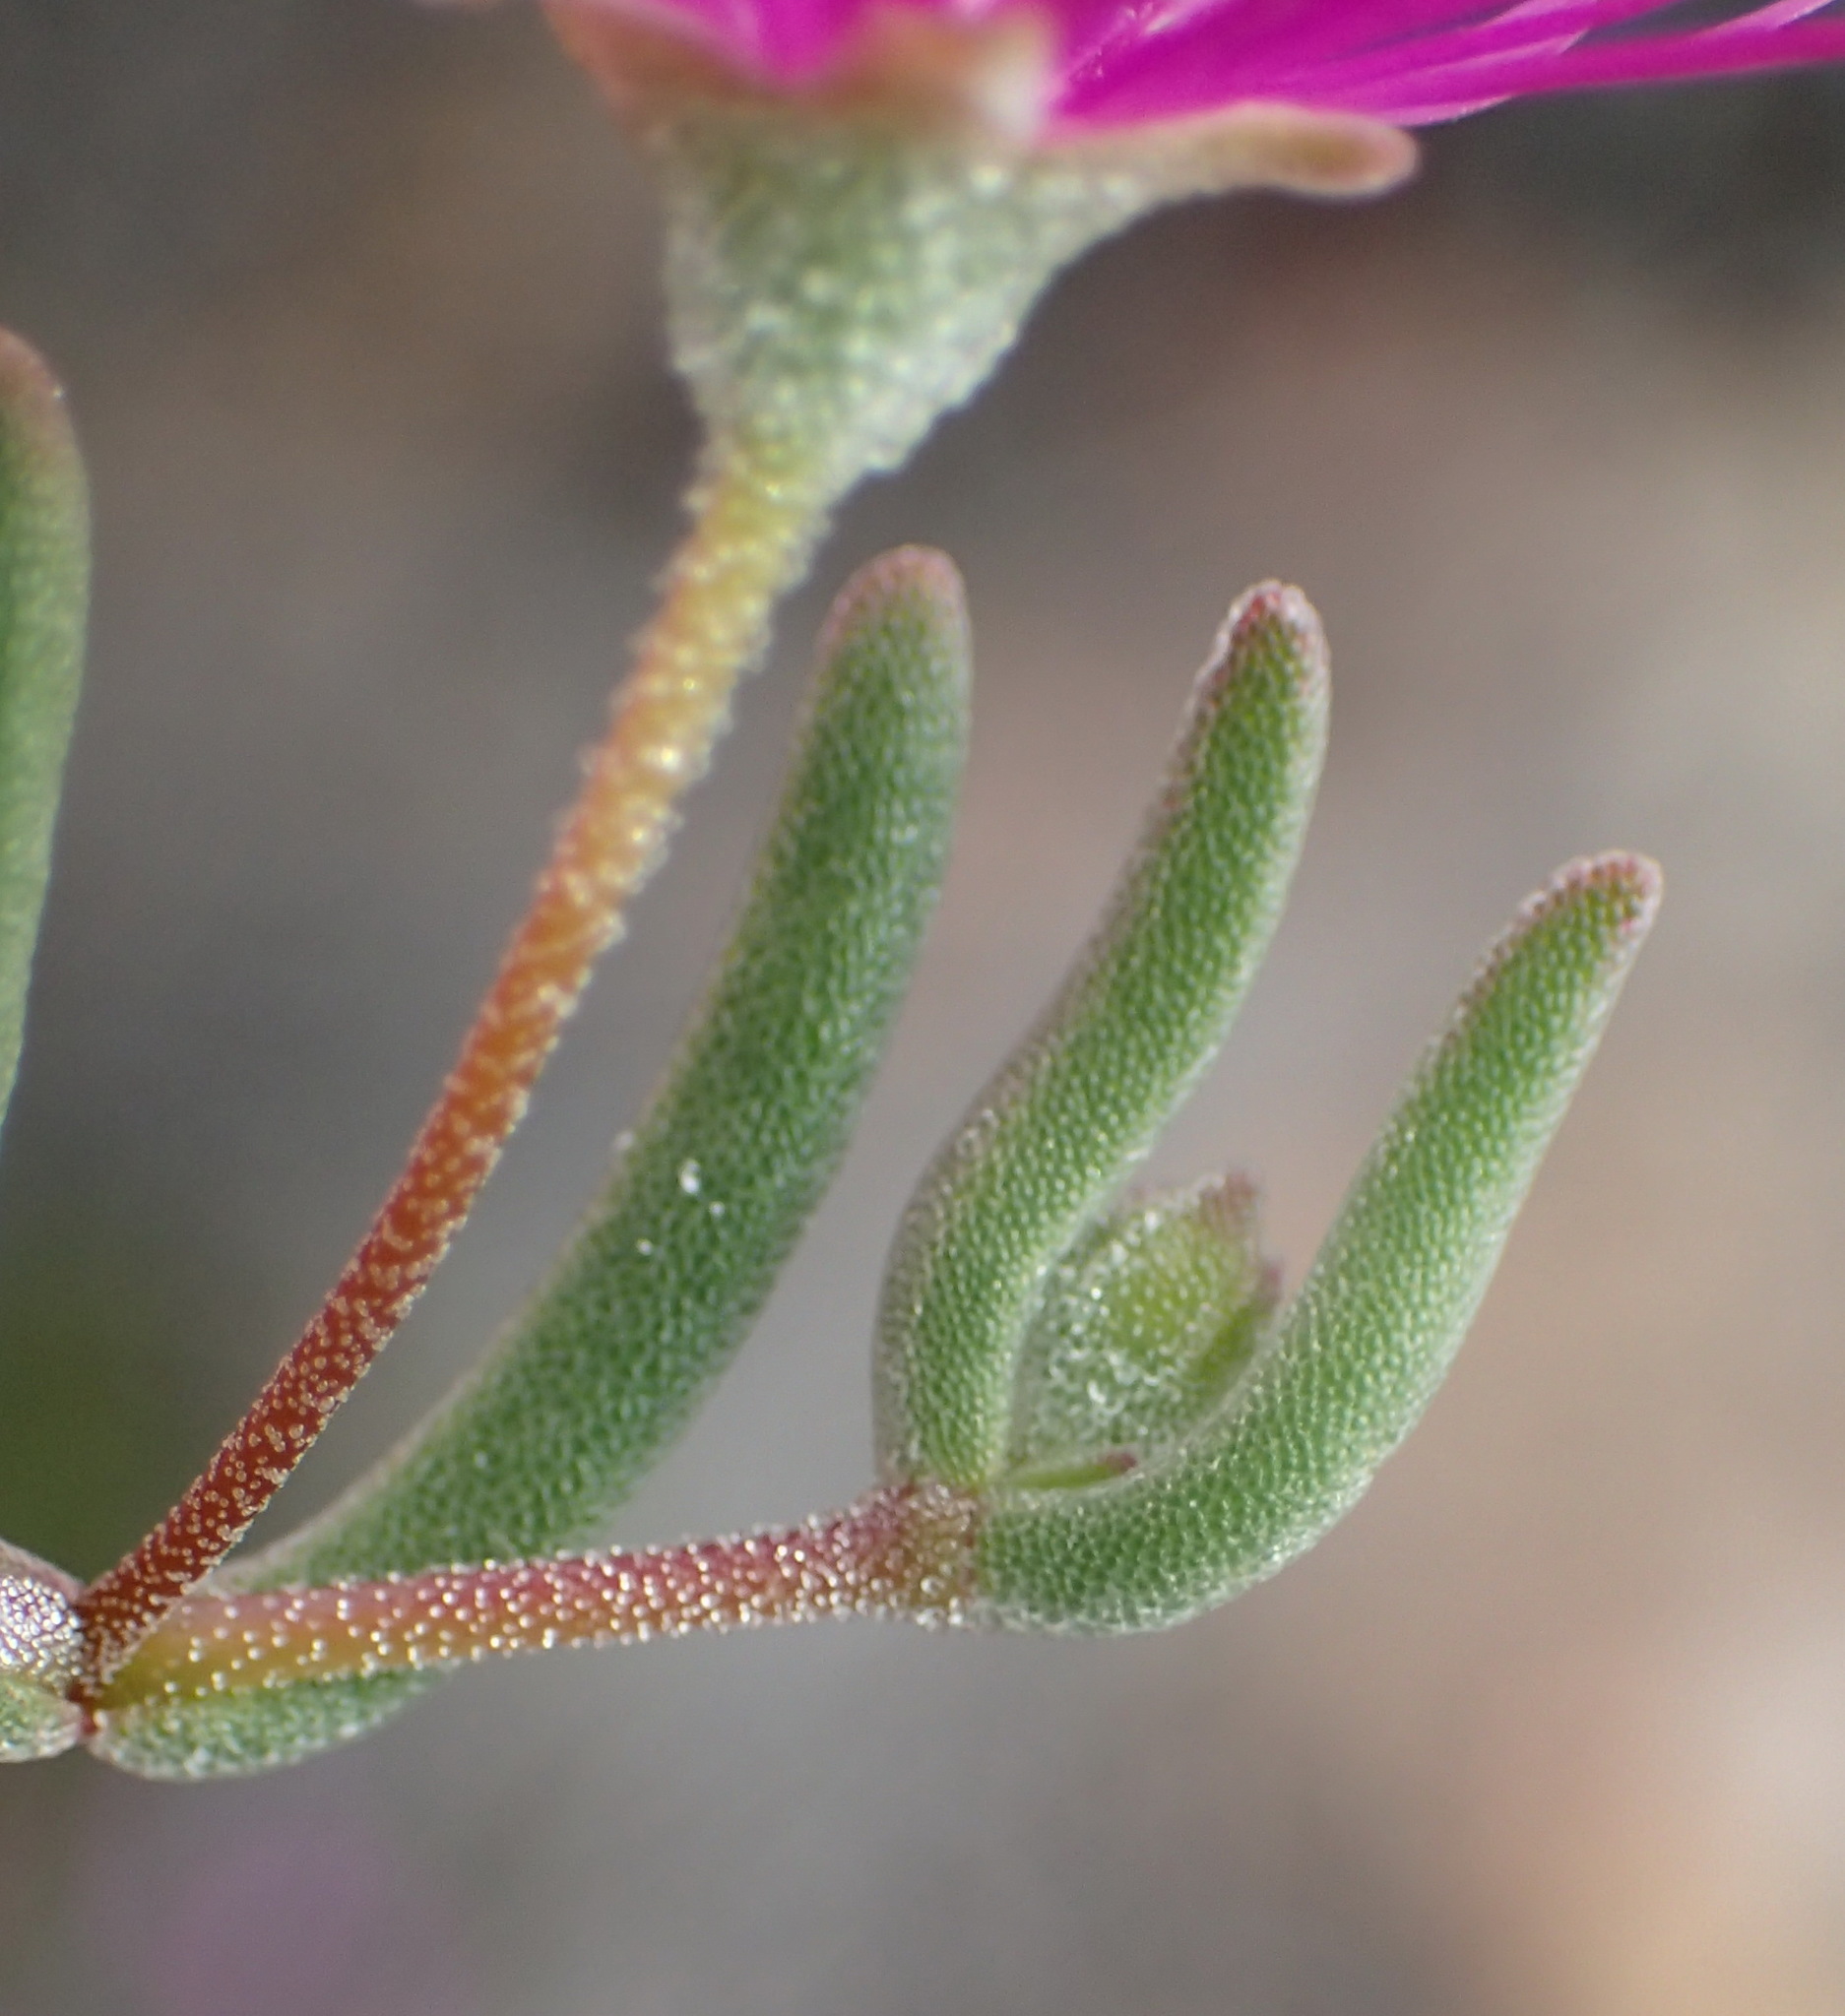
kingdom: Plantae
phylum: Tracheophyta
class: Magnoliopsida
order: Caryophyllales
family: Aizoaceae
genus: Drosanthemum
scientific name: Drosanthemum lique
